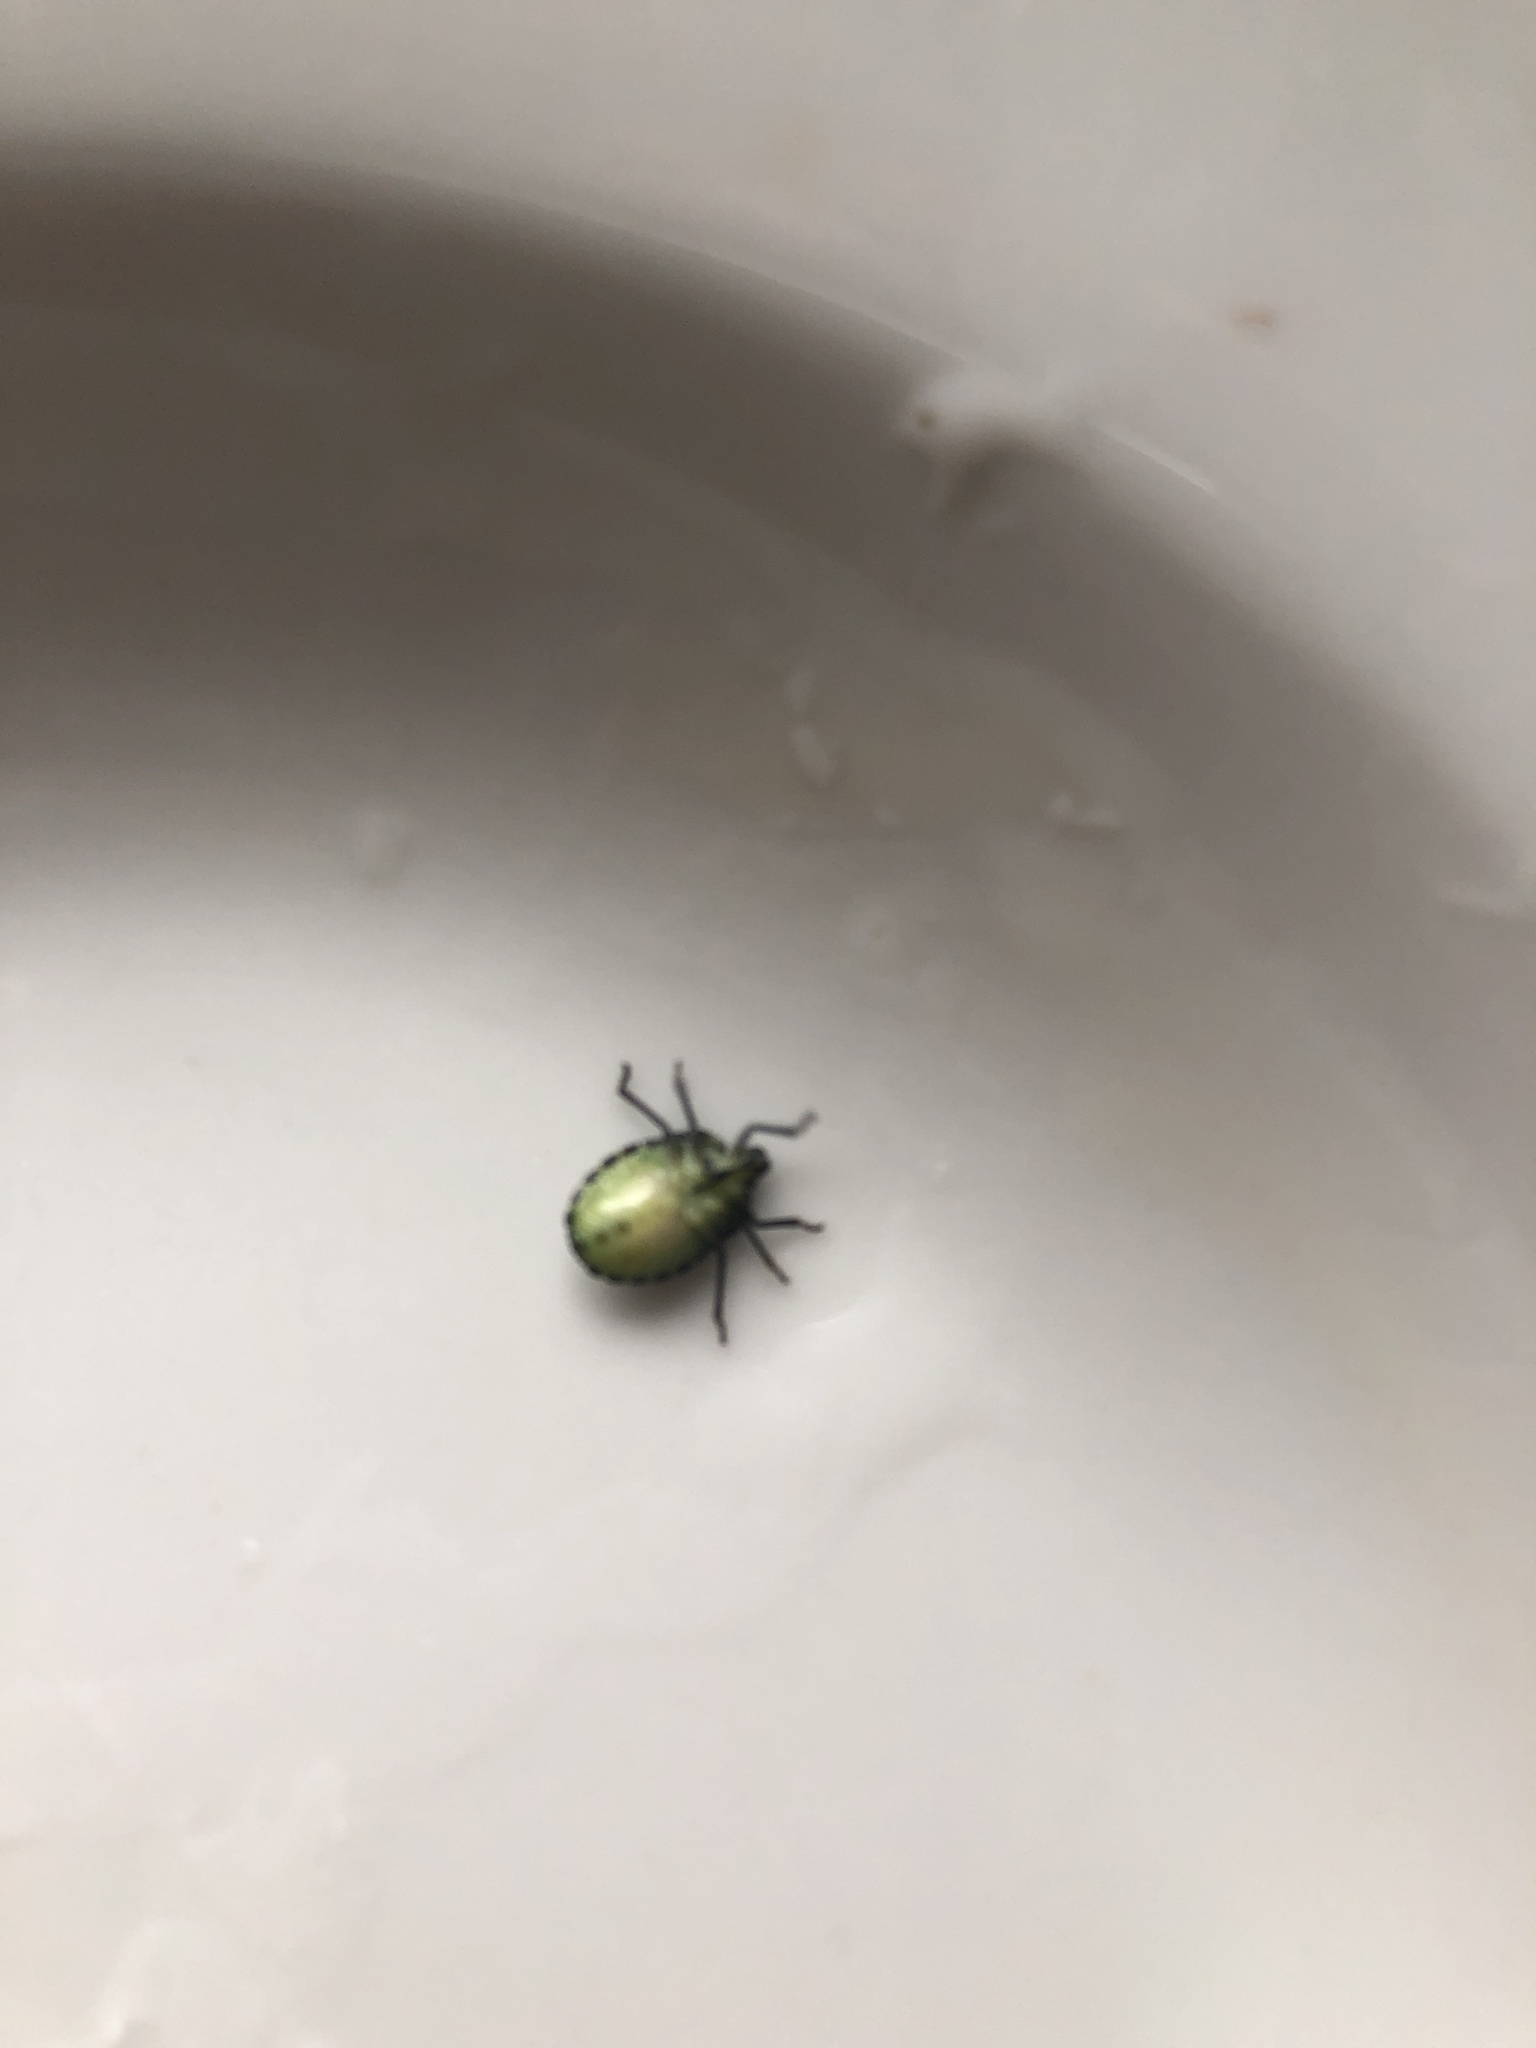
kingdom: Animalia
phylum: Arthropoda
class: Insecta
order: Hemiptera
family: Pentatomidae
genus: Palomena
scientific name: Palomena prasina
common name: Green shieldbug
